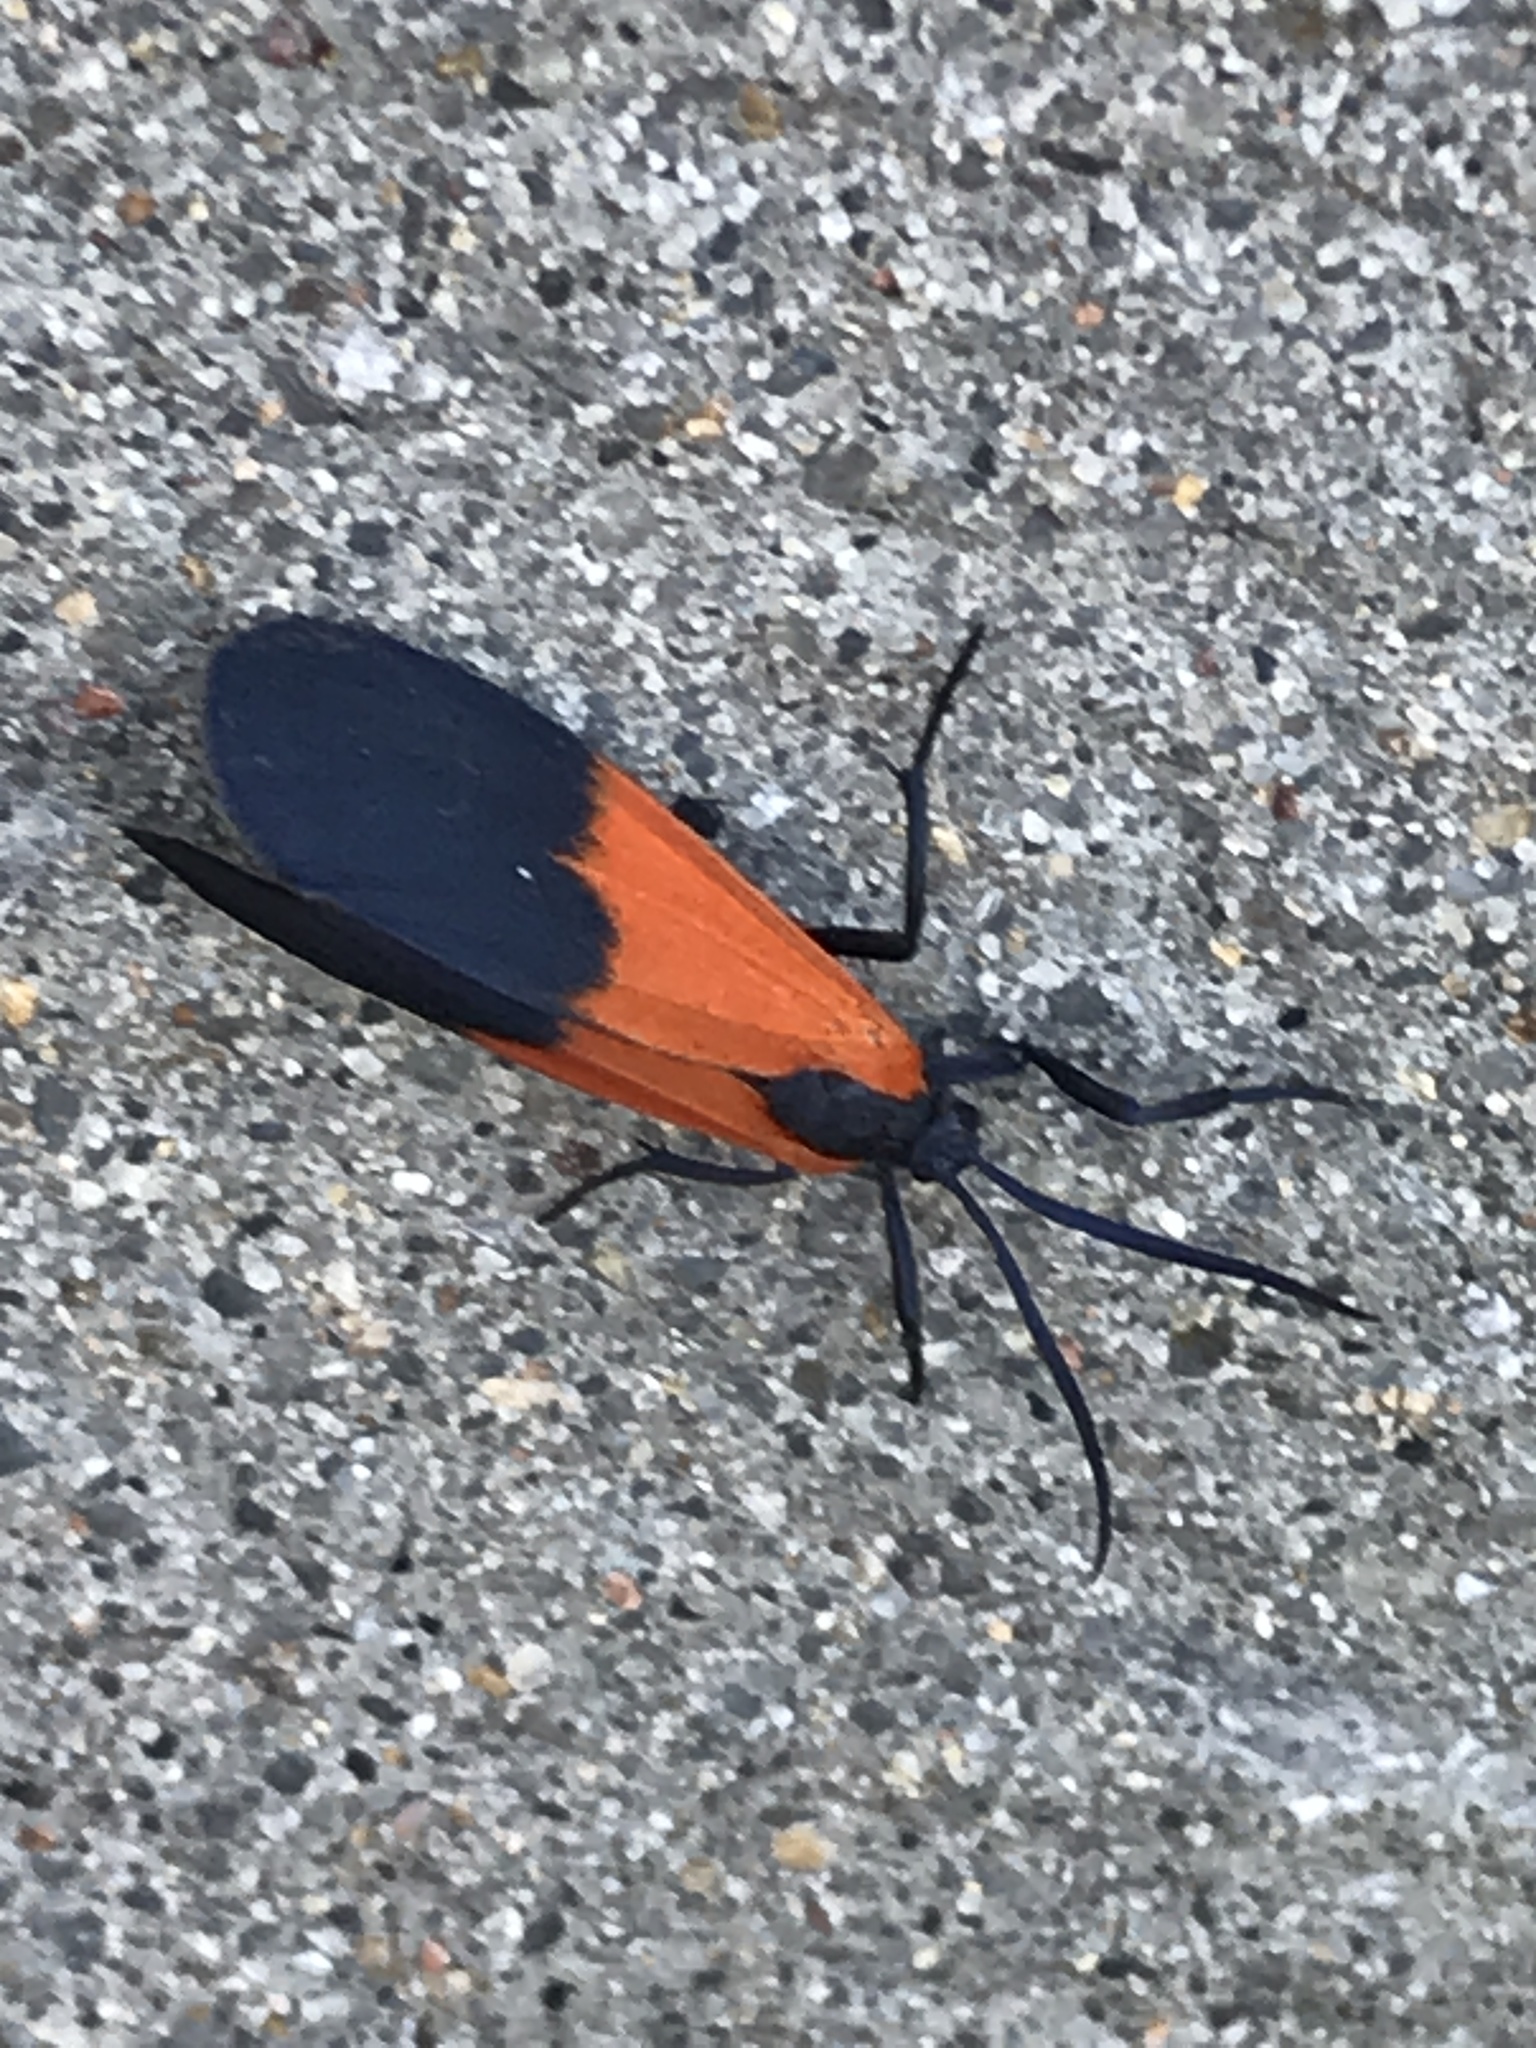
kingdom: Animalia
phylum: Arthropoda
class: Insecta
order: Lepidoptera
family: Erebidae
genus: Lycomorpha
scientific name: Lycomorpha pholus
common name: Black-and-yellow lichen moth
